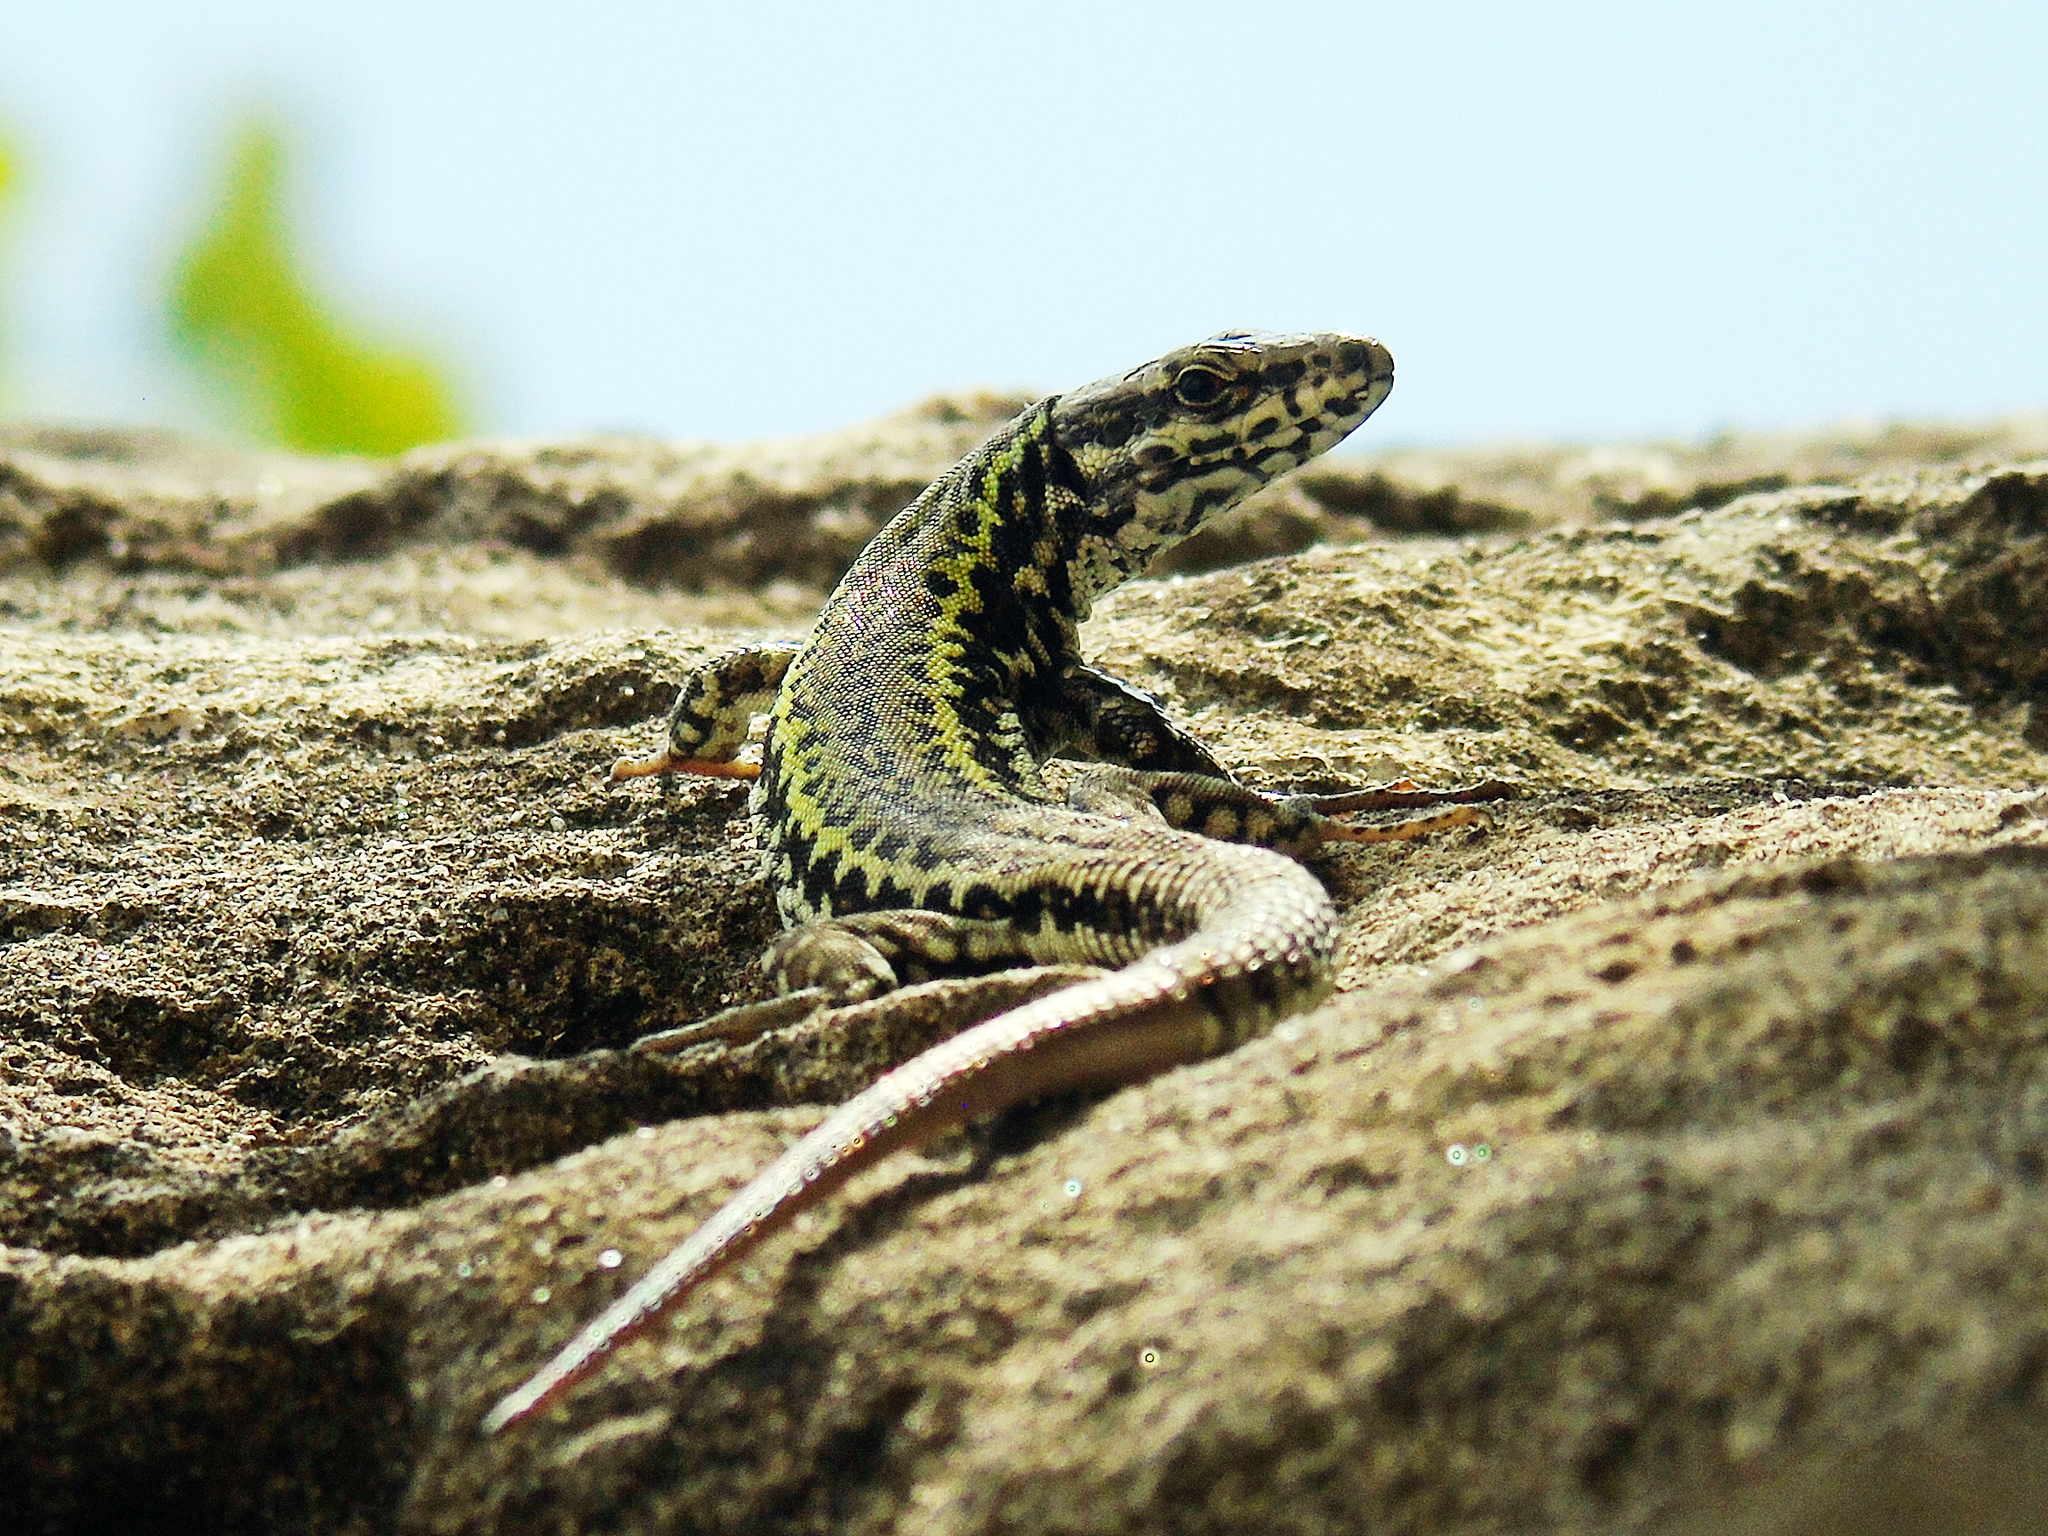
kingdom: Animalia
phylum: Chordata
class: Squamata
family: Lacertidae
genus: Podarcis
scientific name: Podarcis muralis
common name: Common wall lizard
